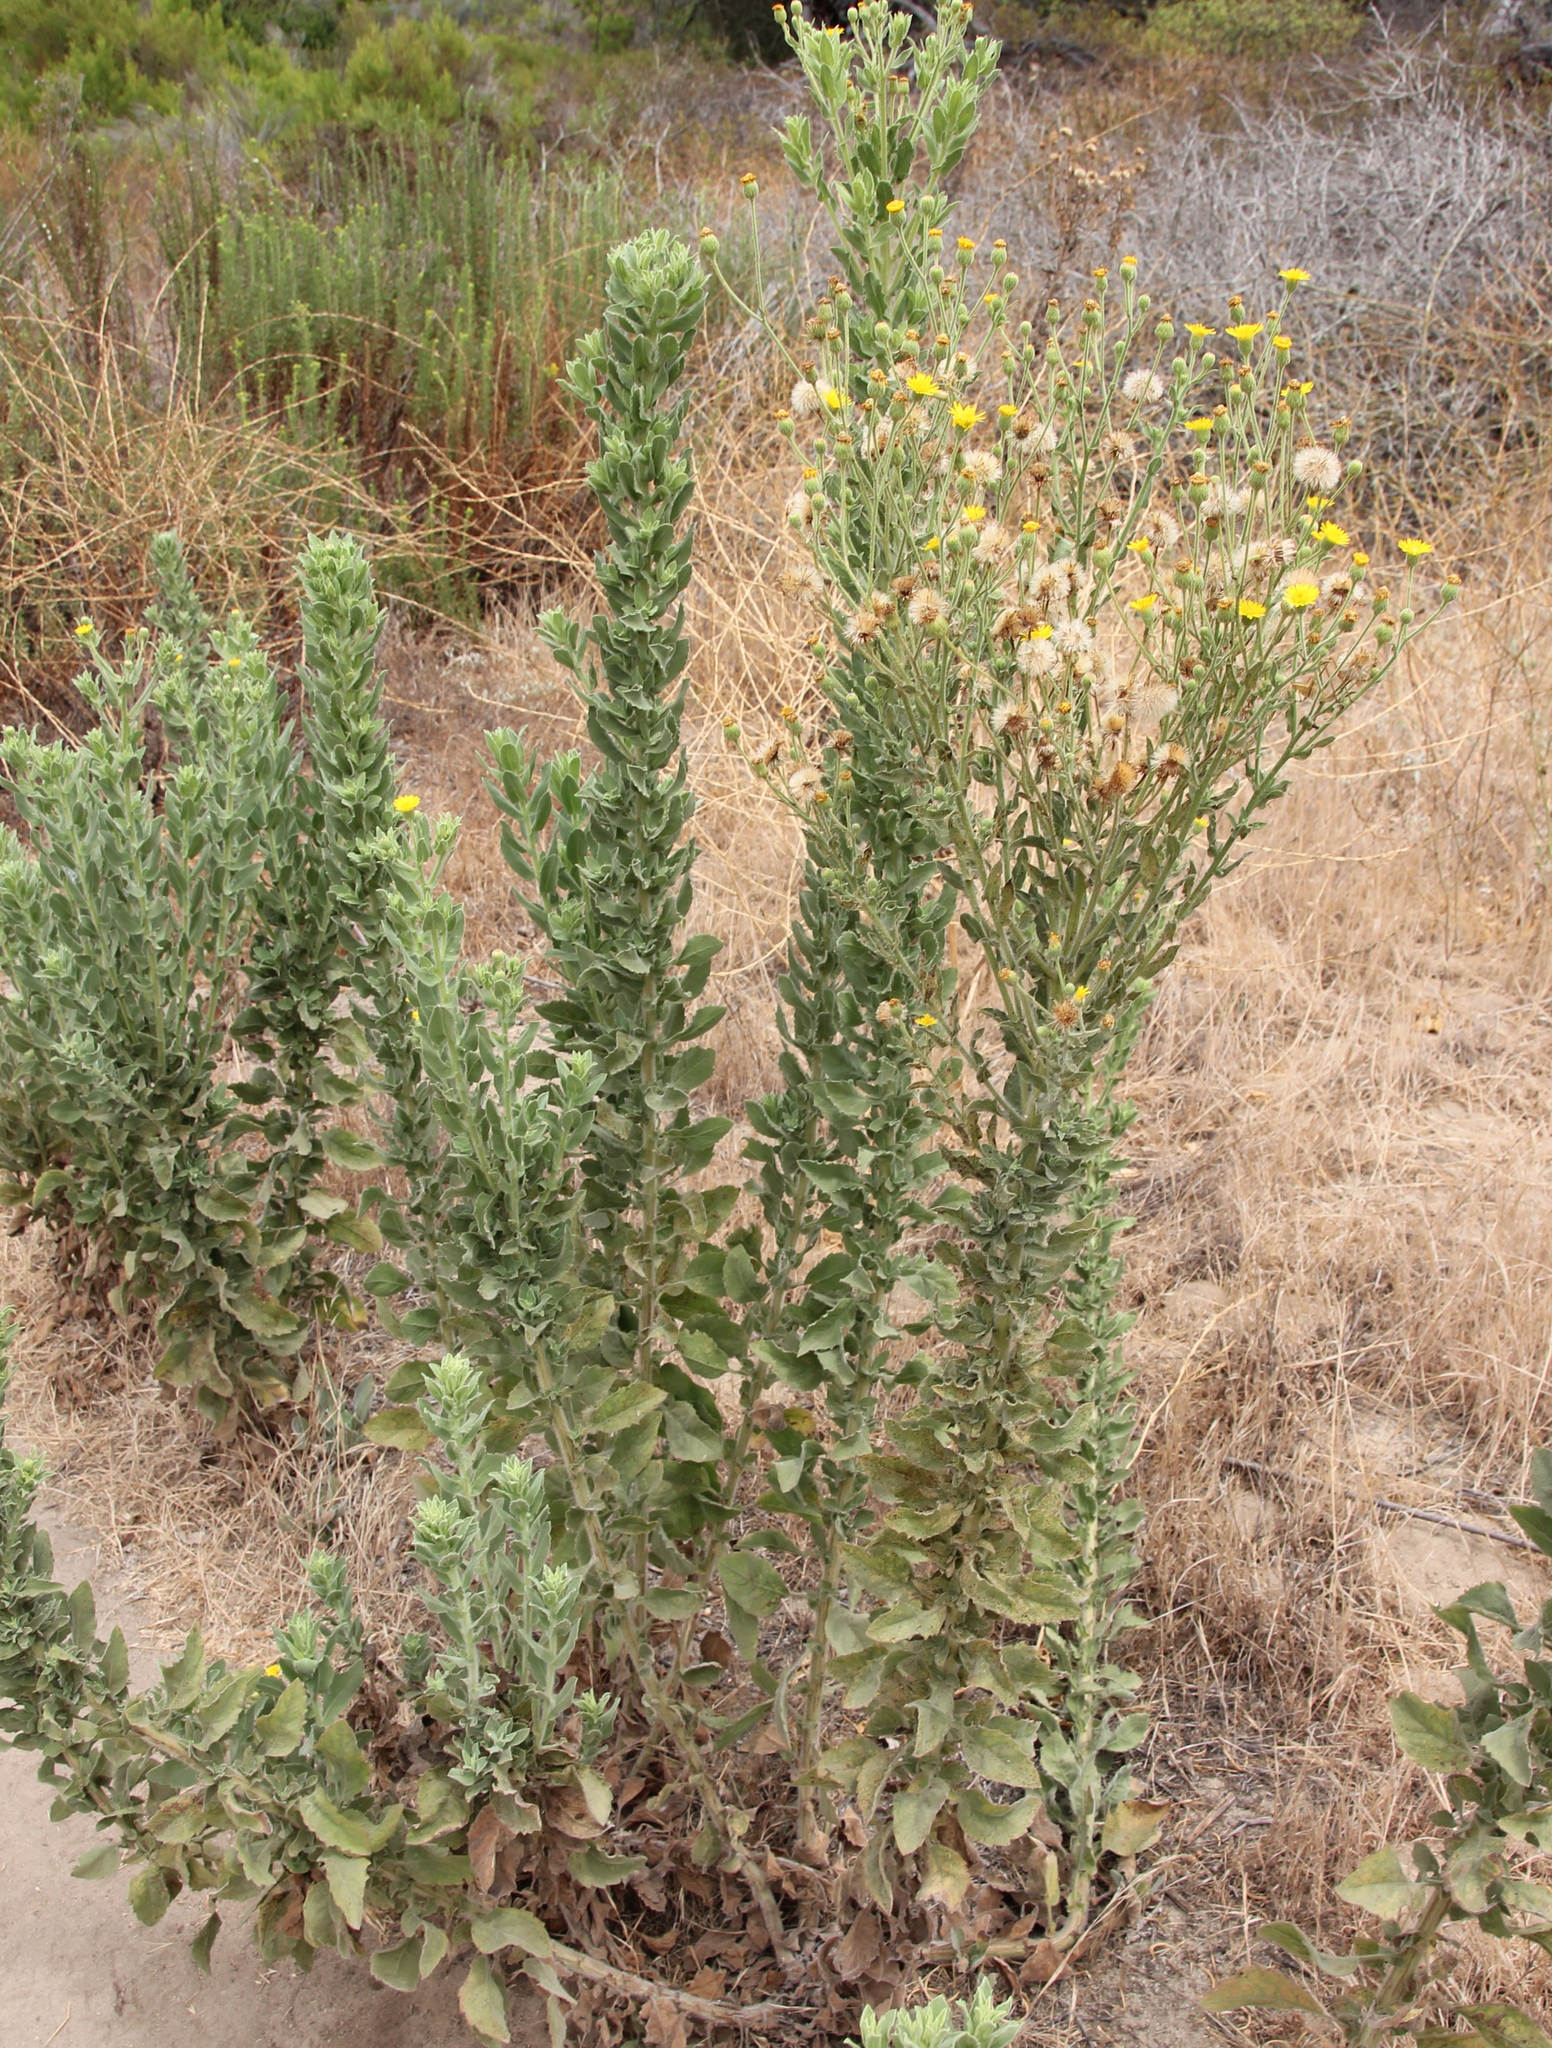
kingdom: Plantae
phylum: Tracheophyta
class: Magnoliopsida
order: Asterales
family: Asteraceae
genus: Heterotheca
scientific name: Heterotheca grandiflora
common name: Telegraphweed
